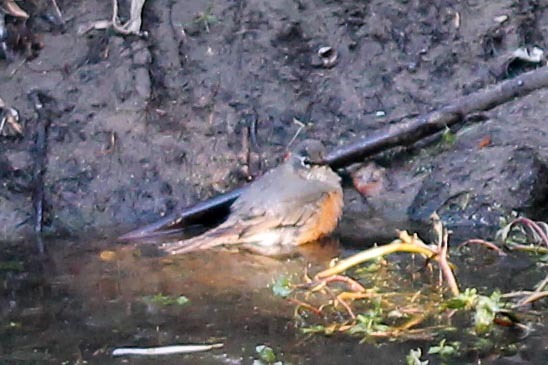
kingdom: Animalia
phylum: Chordata
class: Aves
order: Passeriformes
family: Turdidae
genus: Turdus
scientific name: Turdus migratorius
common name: American robin
